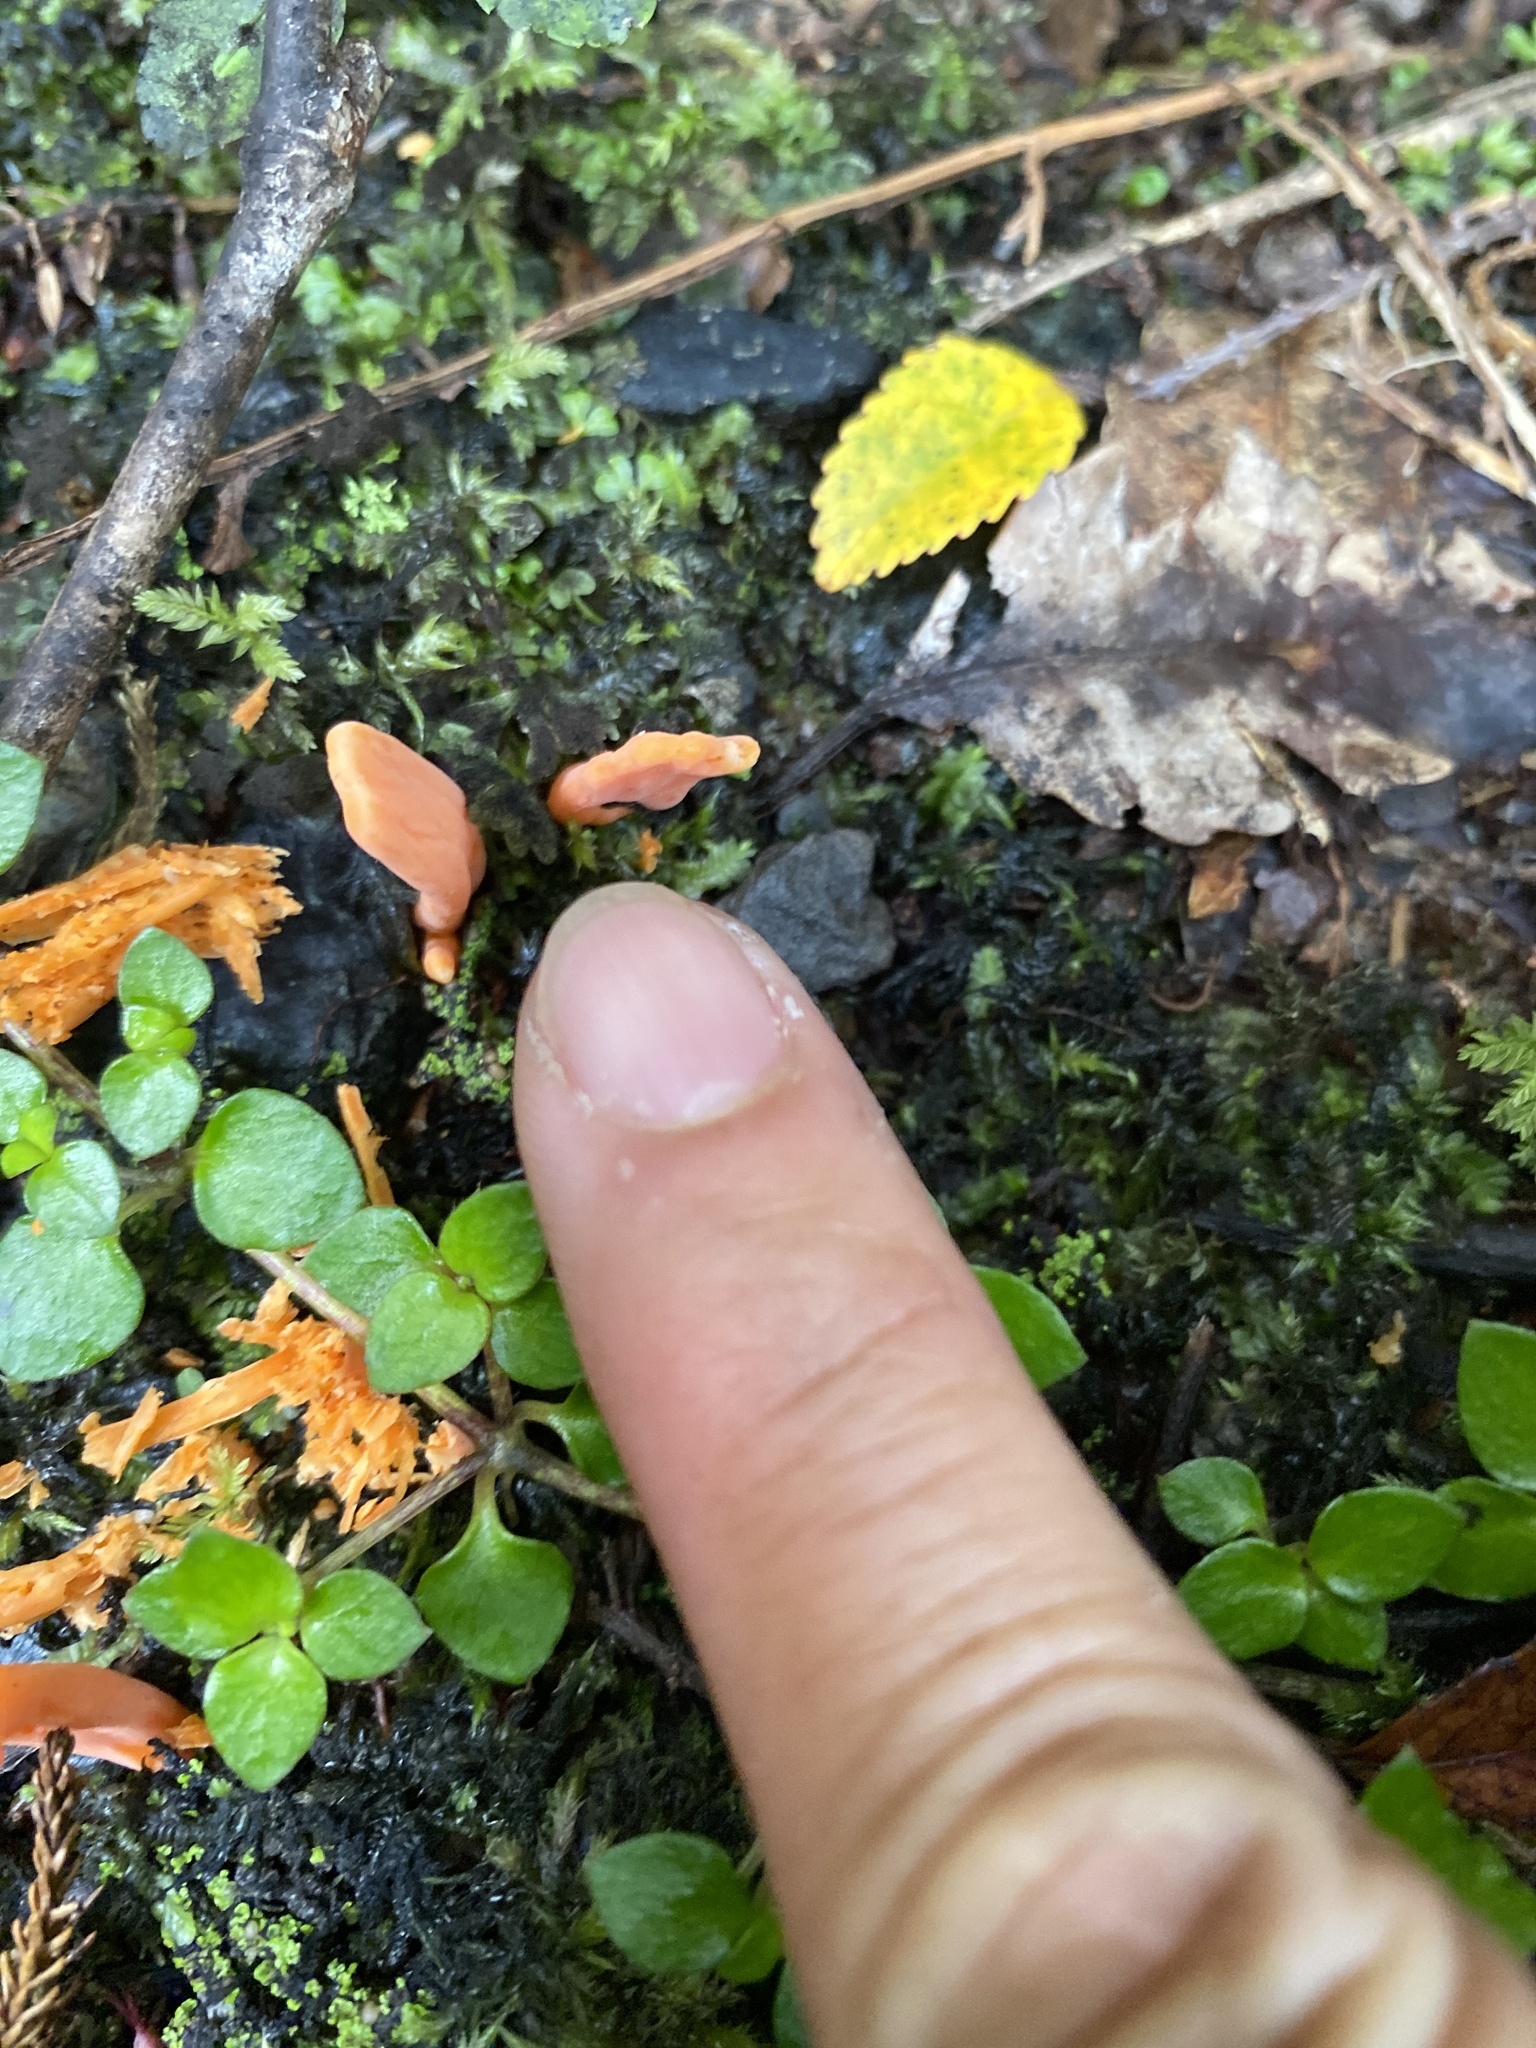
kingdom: Fungi
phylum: Basidiomycota
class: Agaricomycetes
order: Agaricales
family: Clavariaceae
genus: Clavulinopsis
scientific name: Clavulinopsis sulcata
